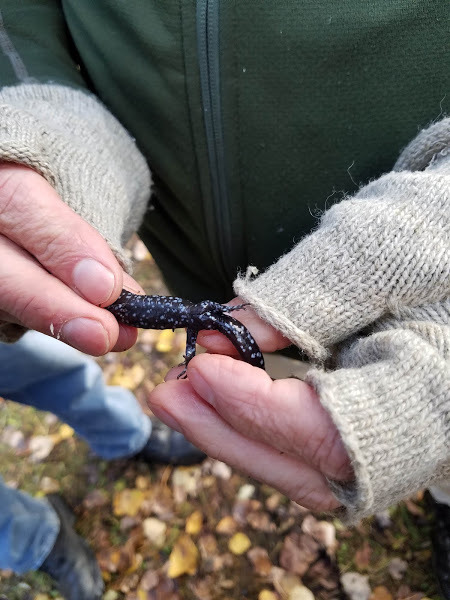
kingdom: Animalia
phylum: Chordata
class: Amphibia
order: Caudata
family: Ambystomatidae
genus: Ambystoma
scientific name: Ambystoma laterale
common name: Blue-spotted salamander
